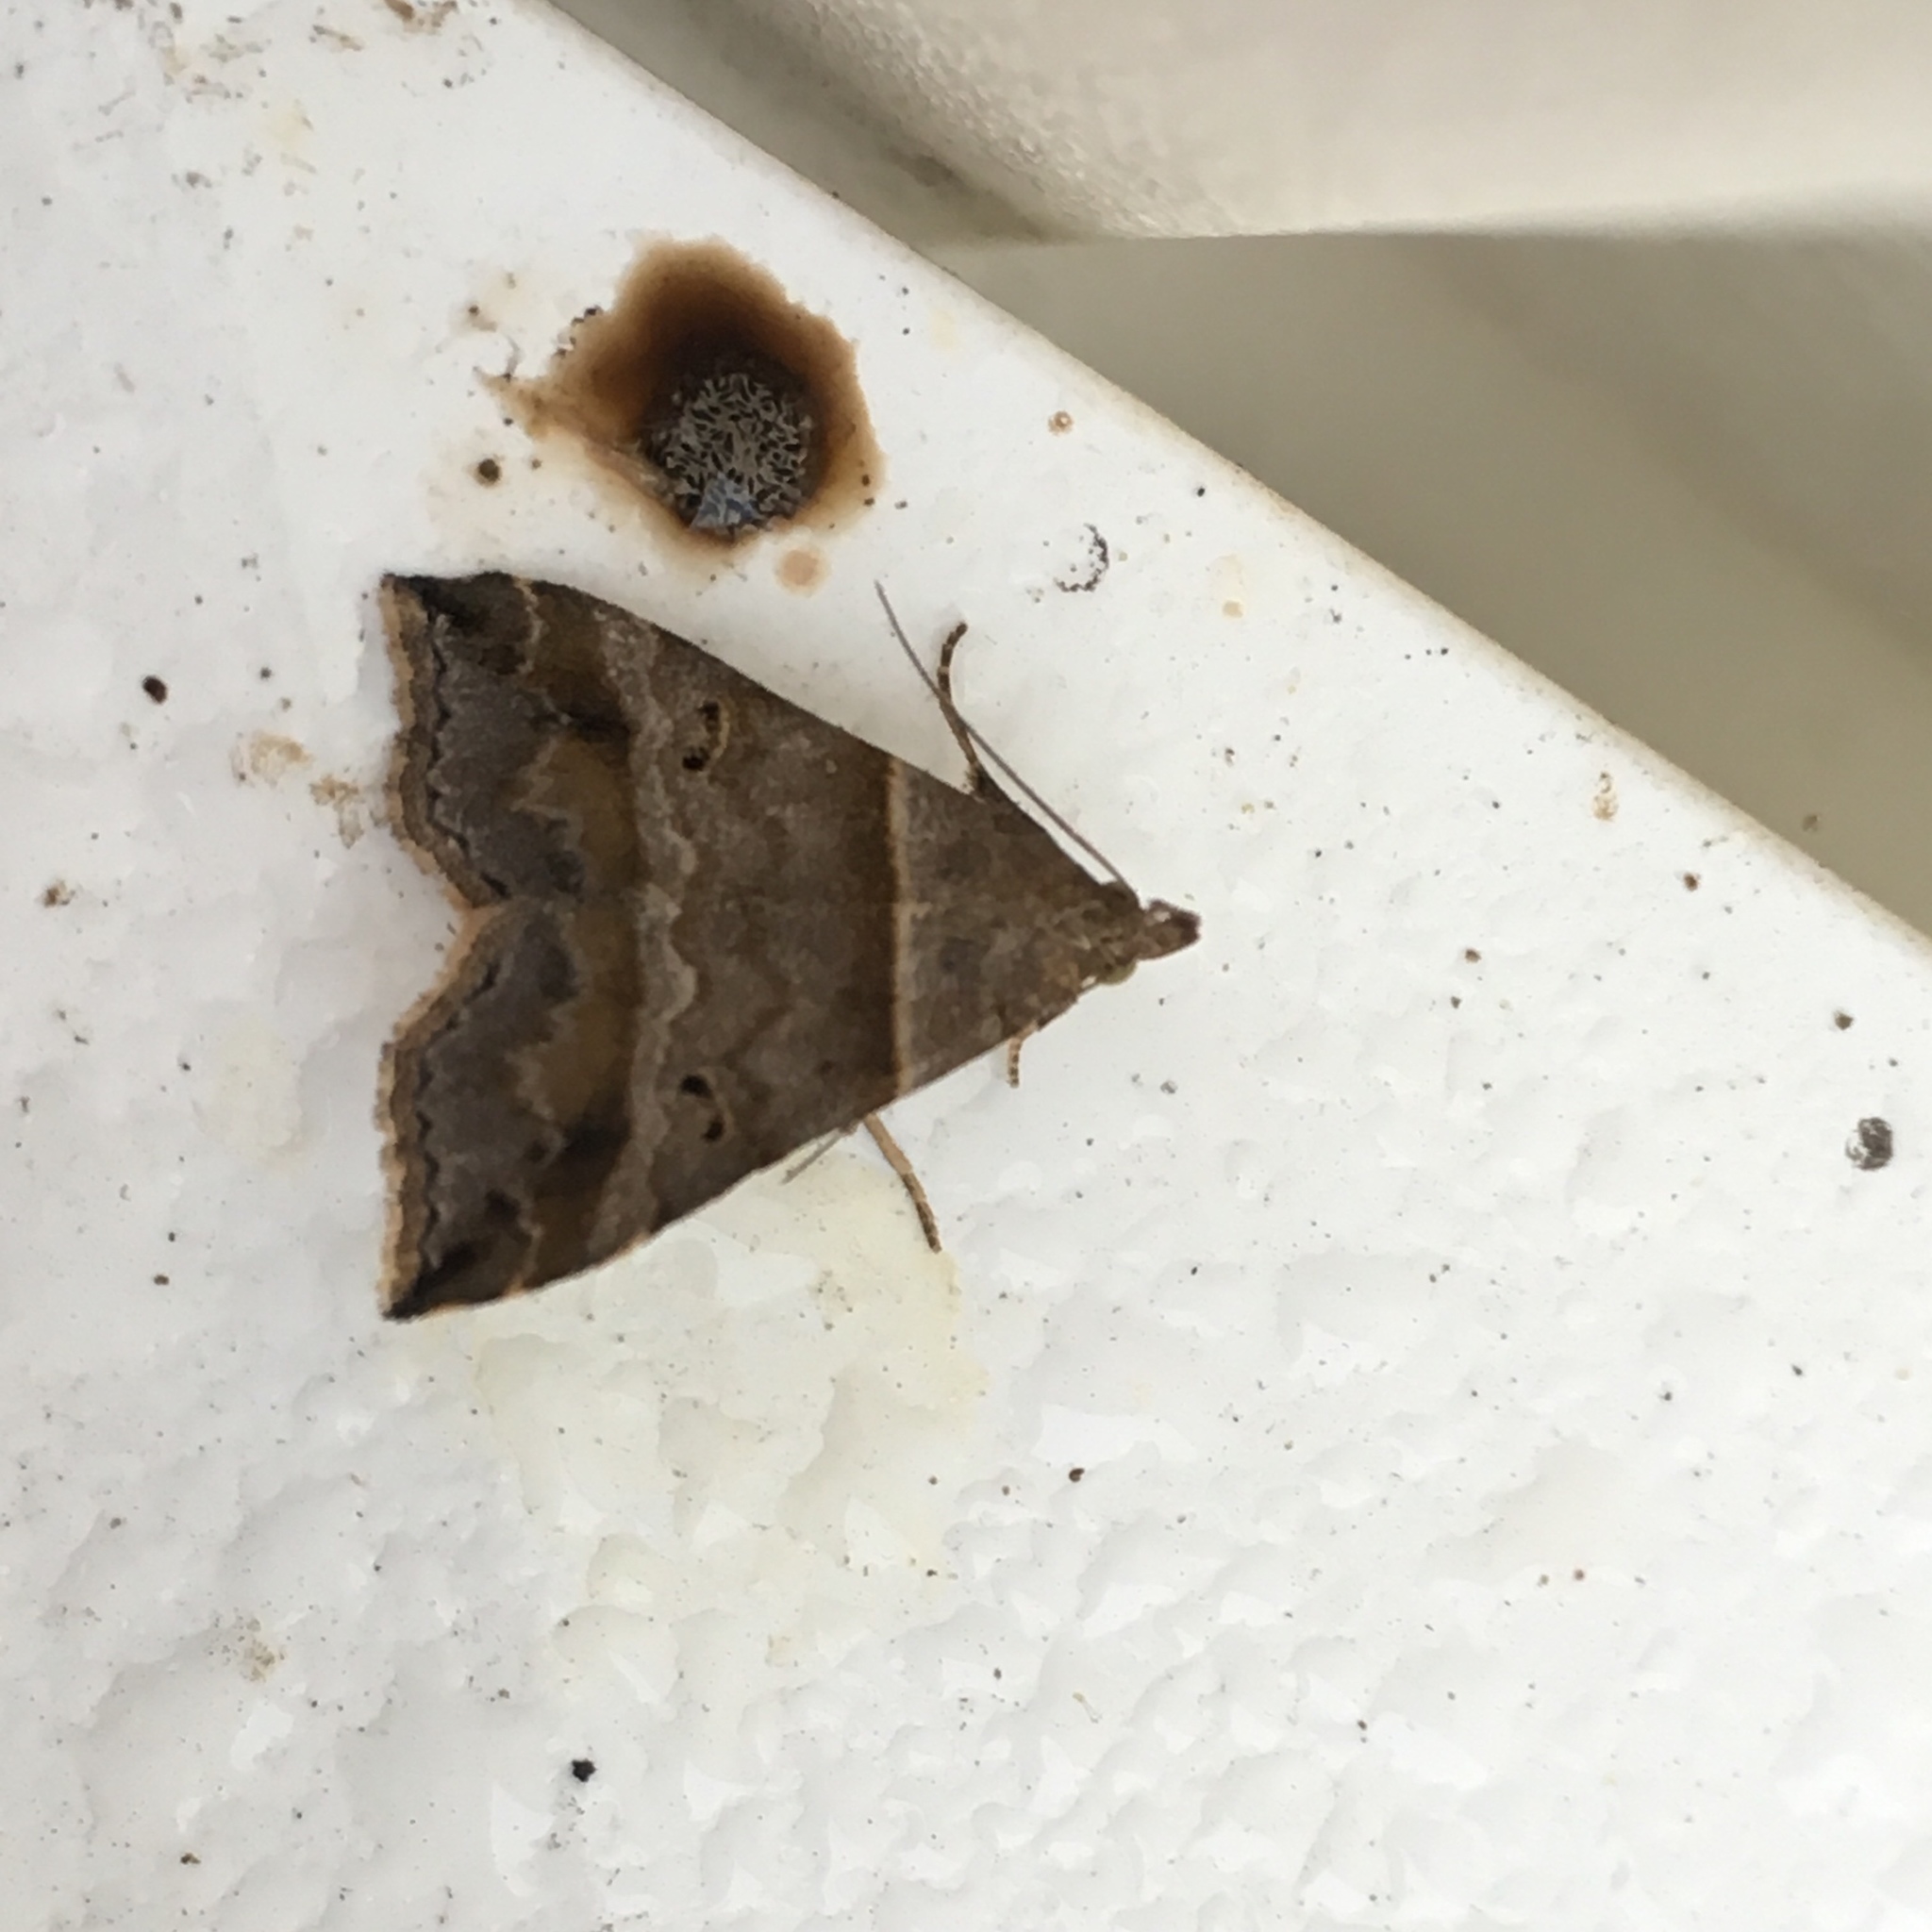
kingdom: Animalia
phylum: Arthropoda
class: Insecta
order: Lepidoptera
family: Erebidae
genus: Phaeolita
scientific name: Phaeolita pyramusalis
